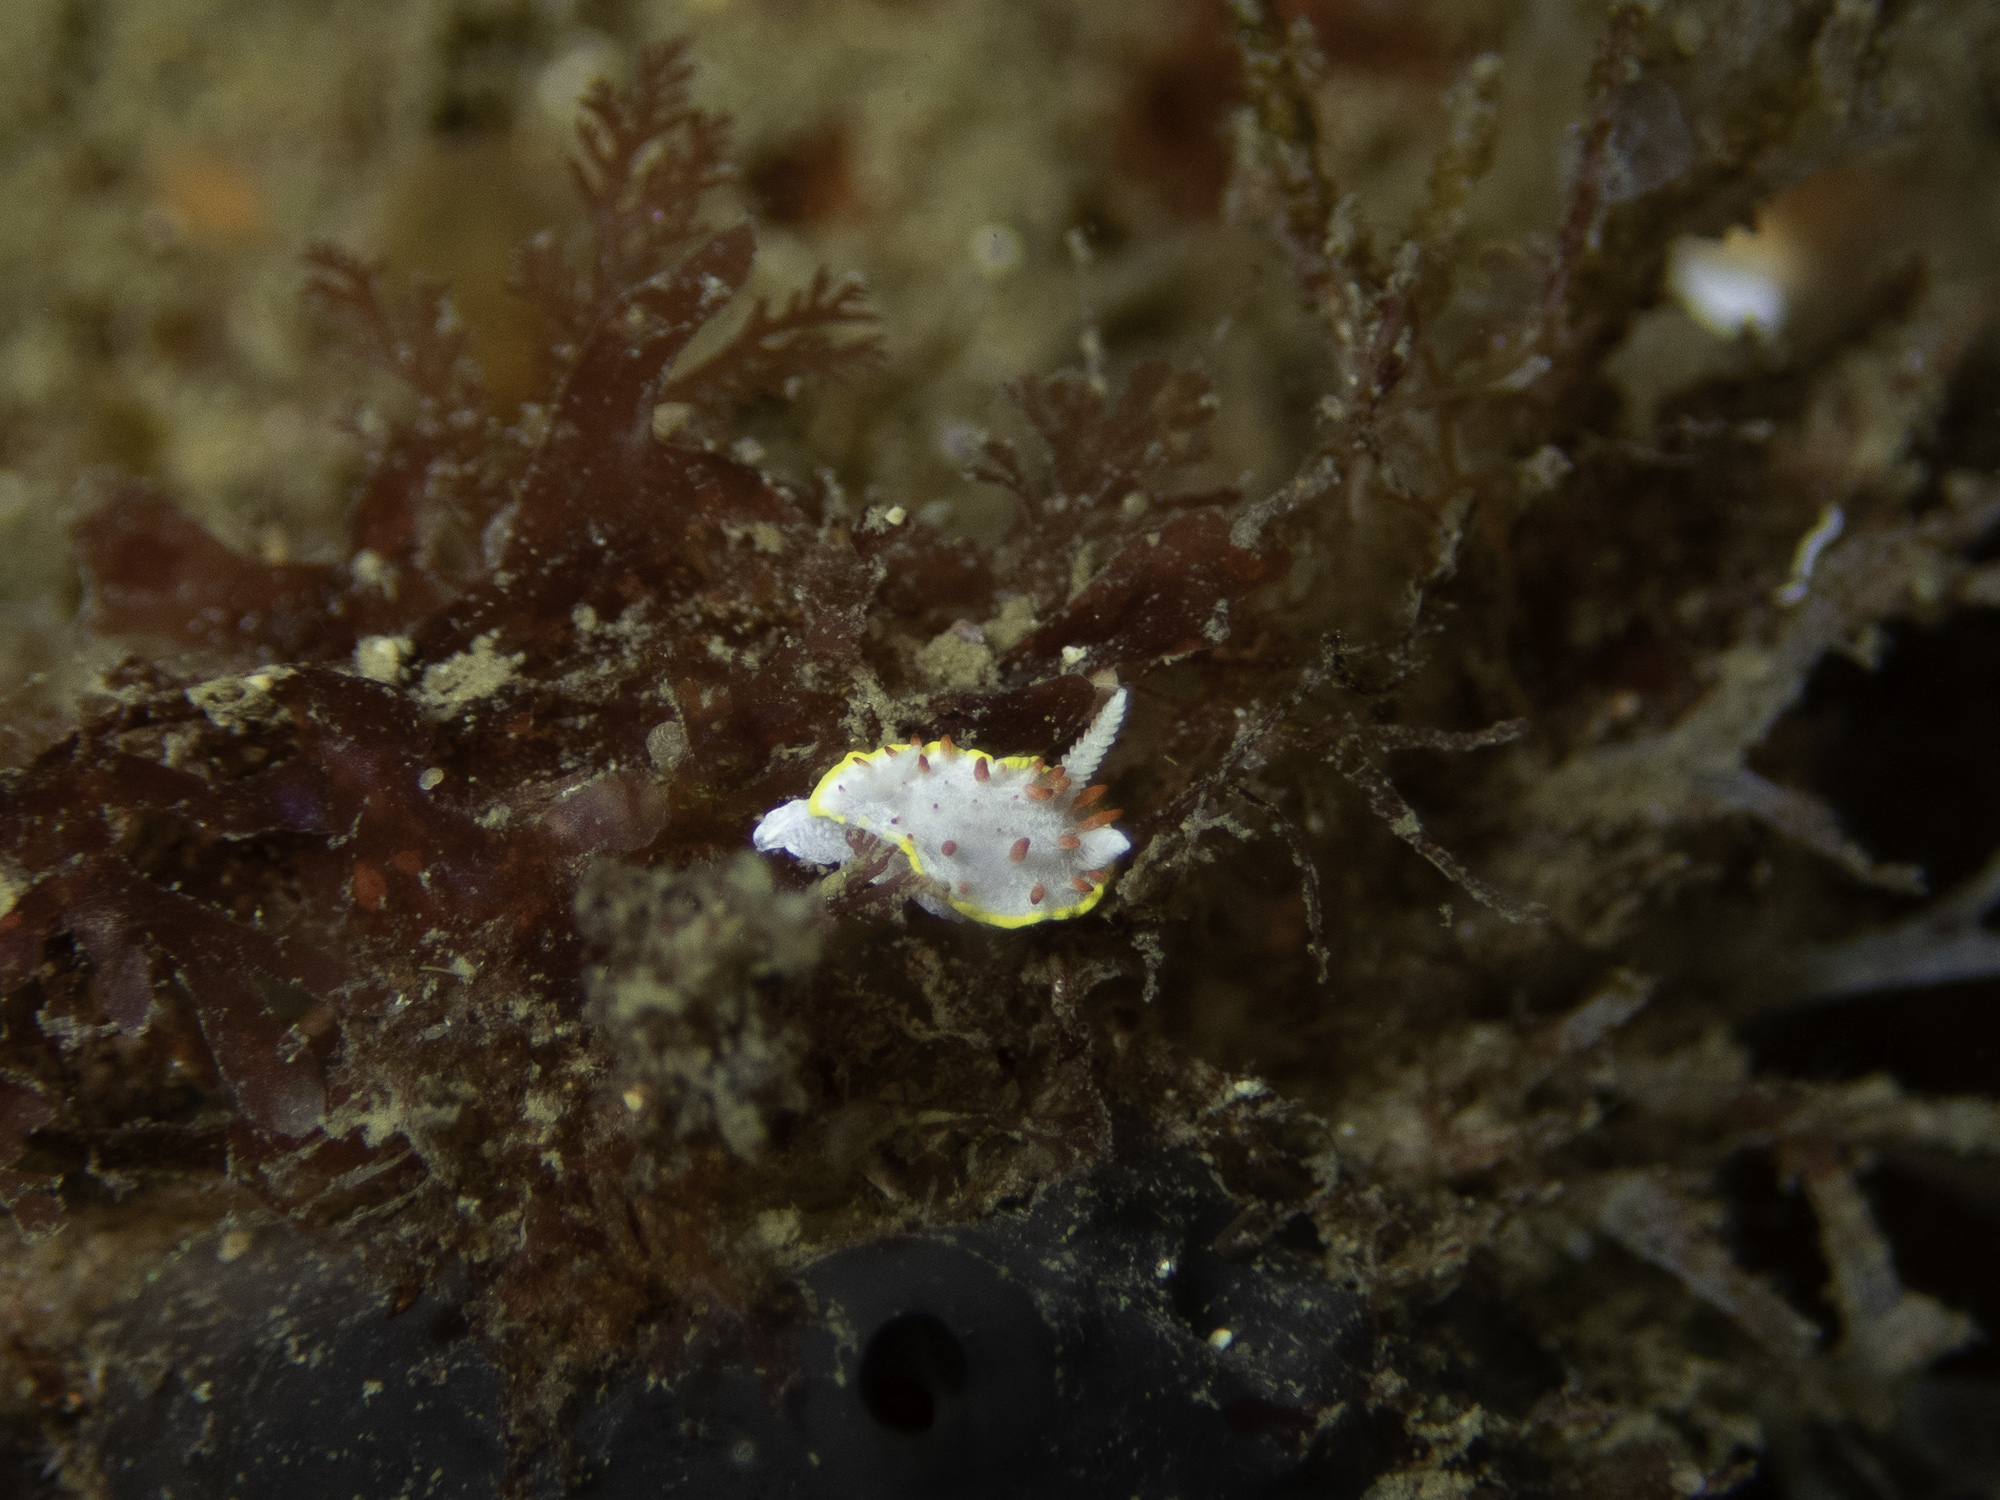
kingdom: Animalia
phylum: Mollusca
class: Gastropoda
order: Nudibranchia
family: Calycidorididae
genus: Diaphorodoris
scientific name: Diaphorodoris papillata
